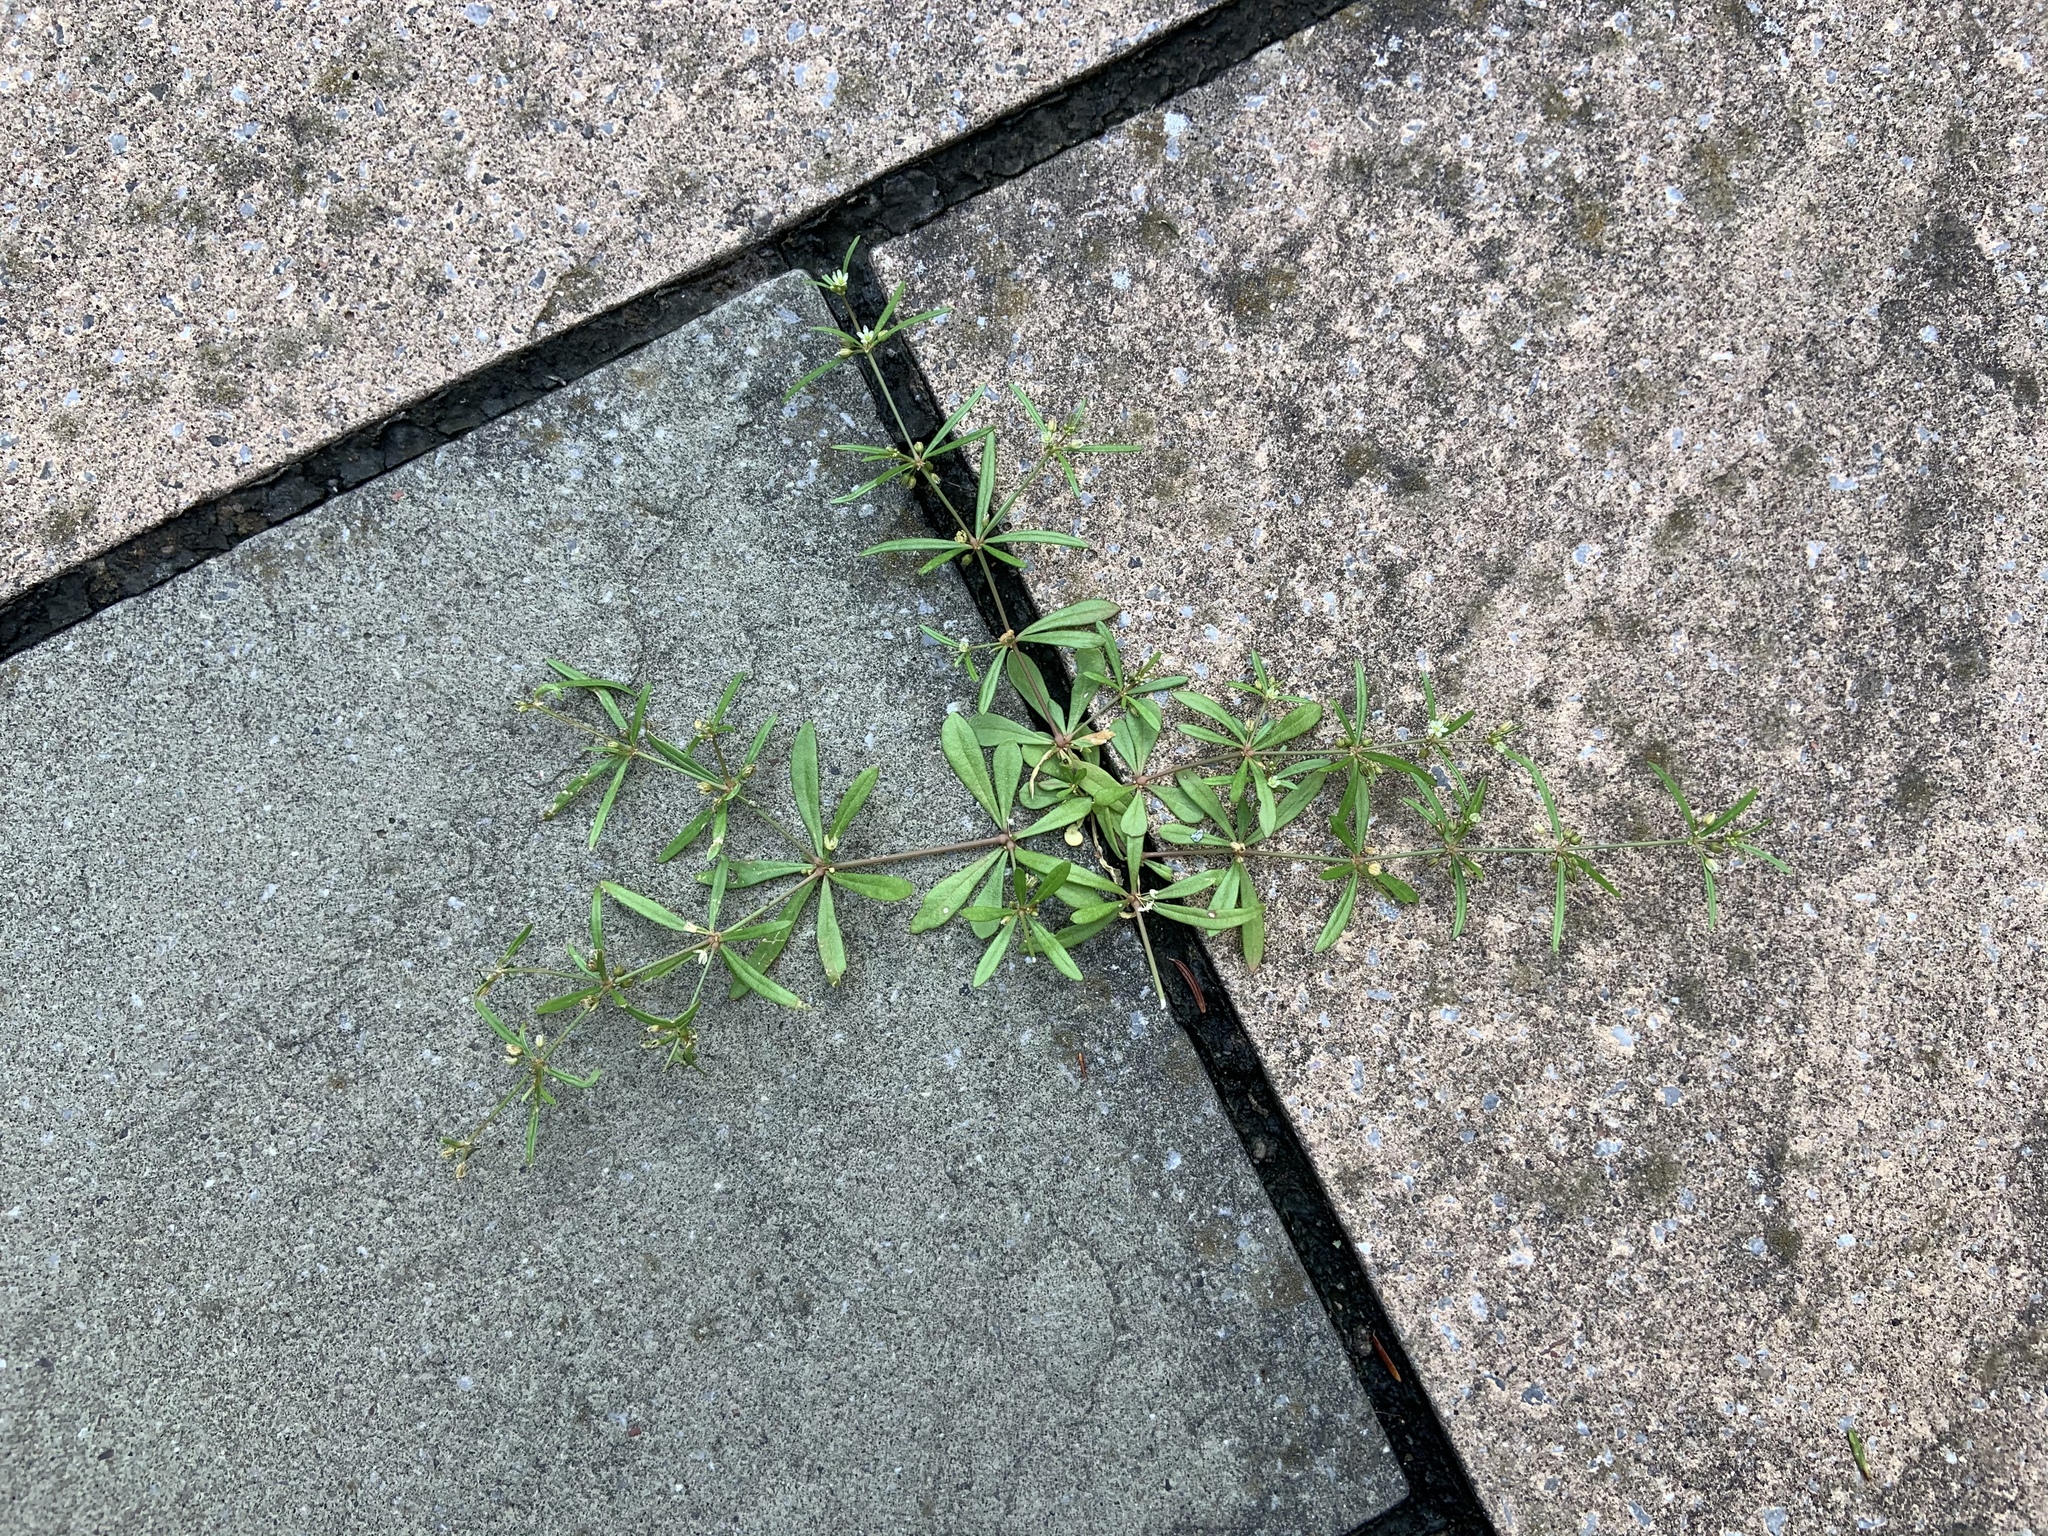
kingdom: Plantae
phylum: Tracheophyta
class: Magnoliopsida
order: Caryophyllales
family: Molluginaceae
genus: Mollugo
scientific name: Mollugo verticillata
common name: Green carpetweed
